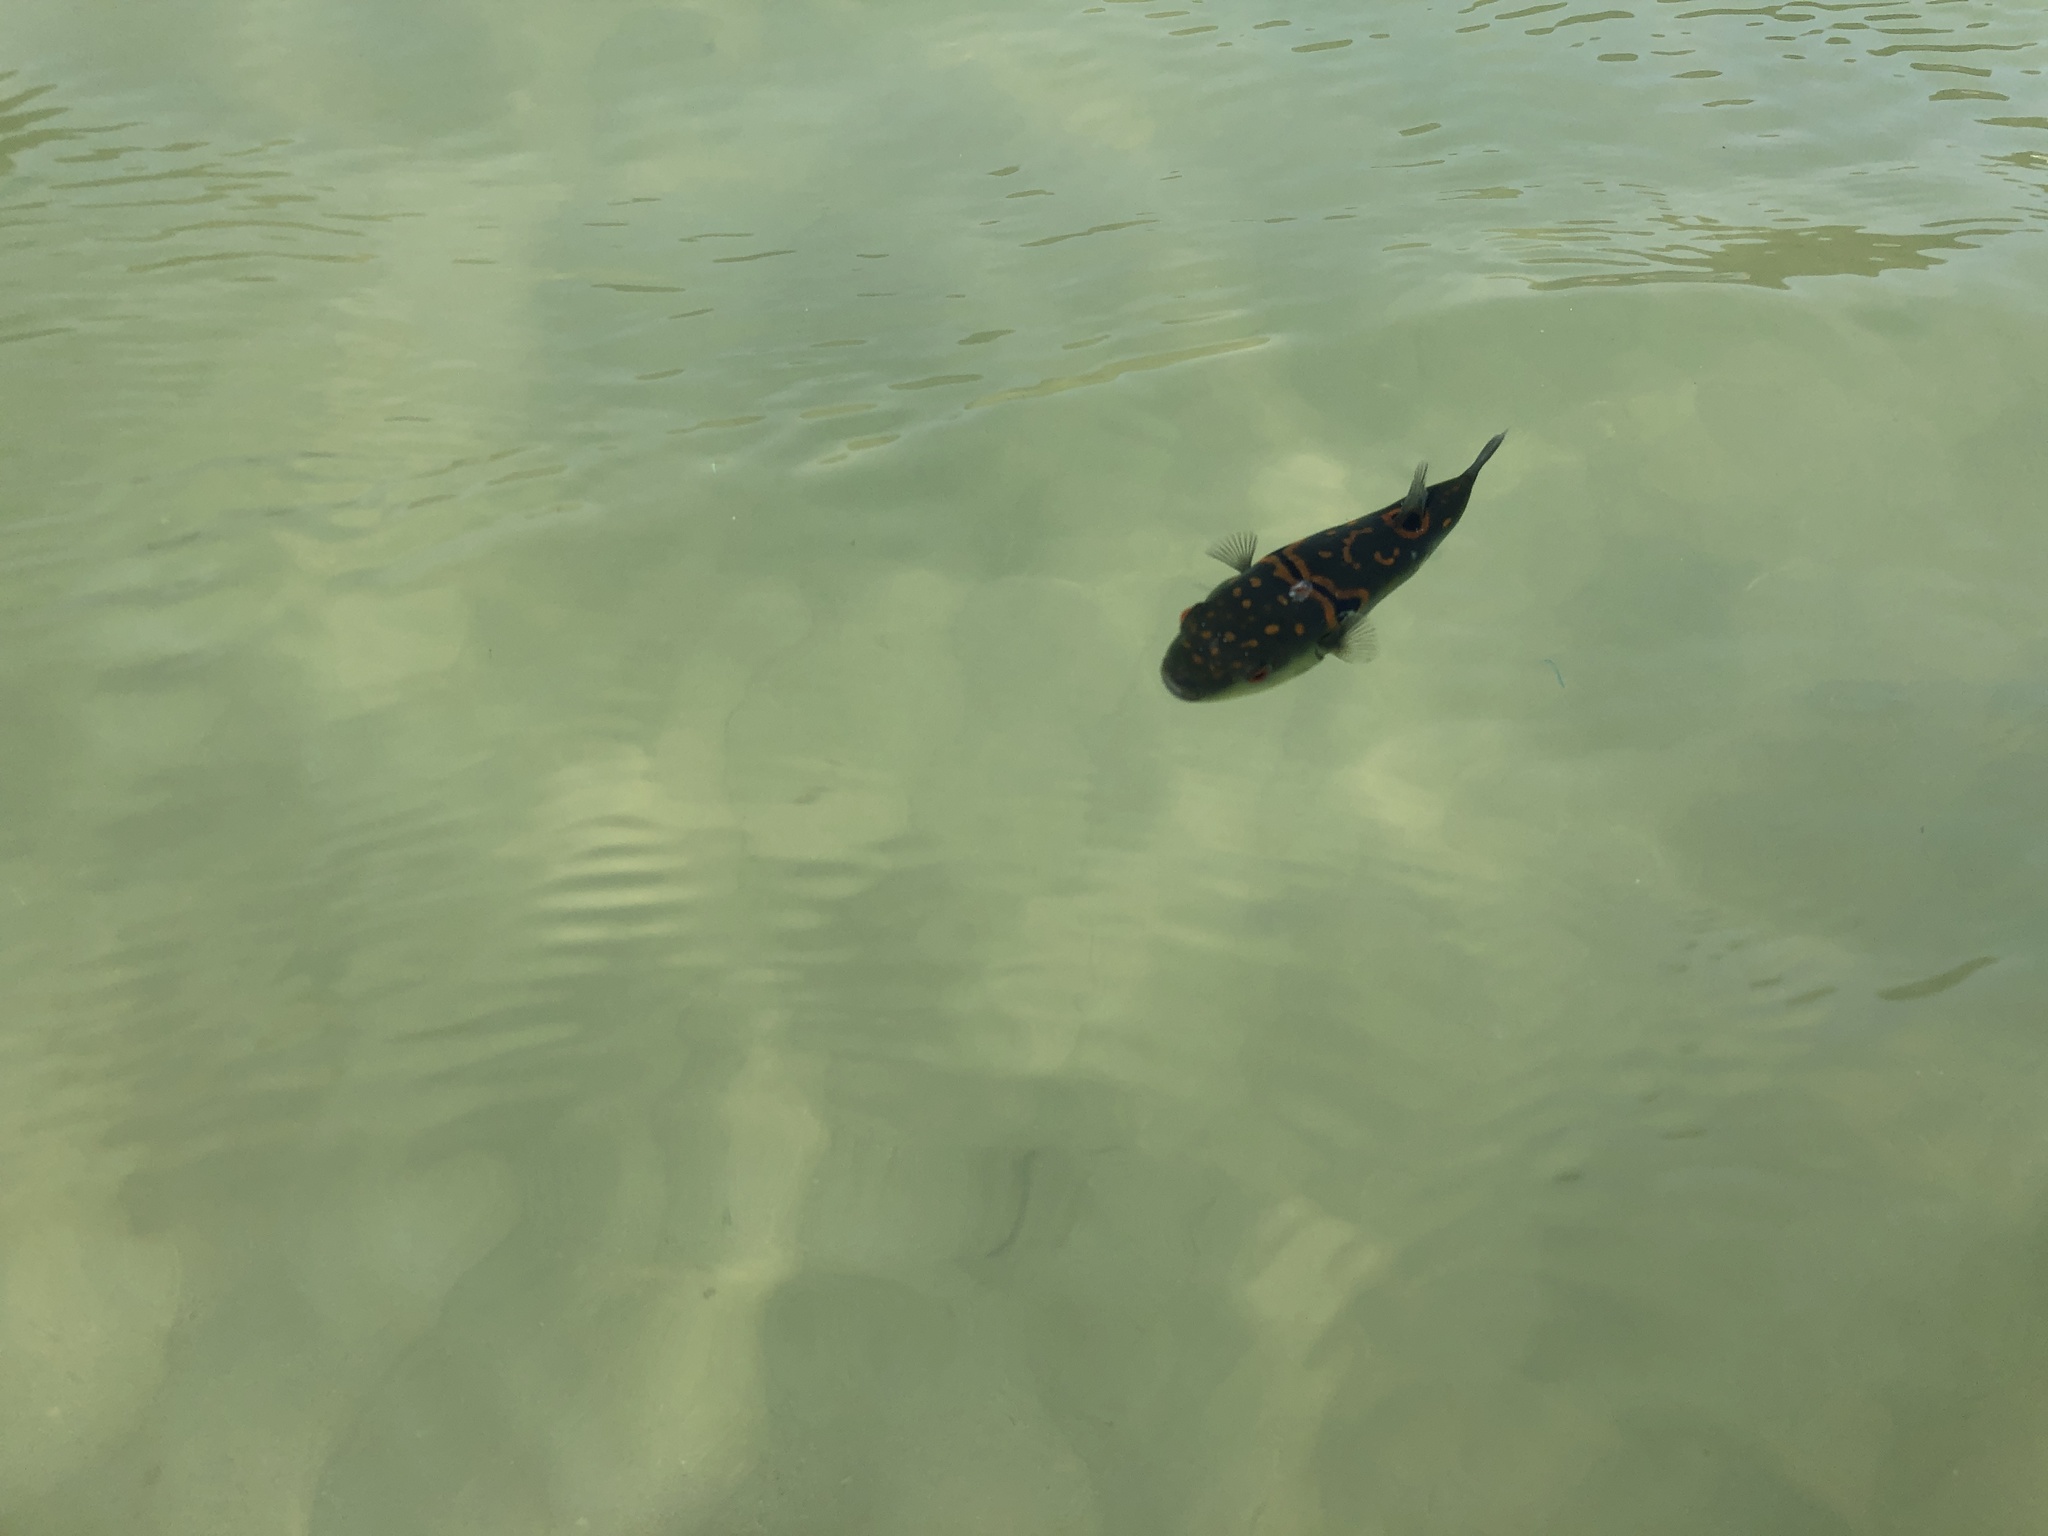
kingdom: Animalia
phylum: Chordata
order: Tetraodontiformes
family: Tetraodontidae
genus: Takifugu
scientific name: Takifugu ocellatus
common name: Ocellated puffer
